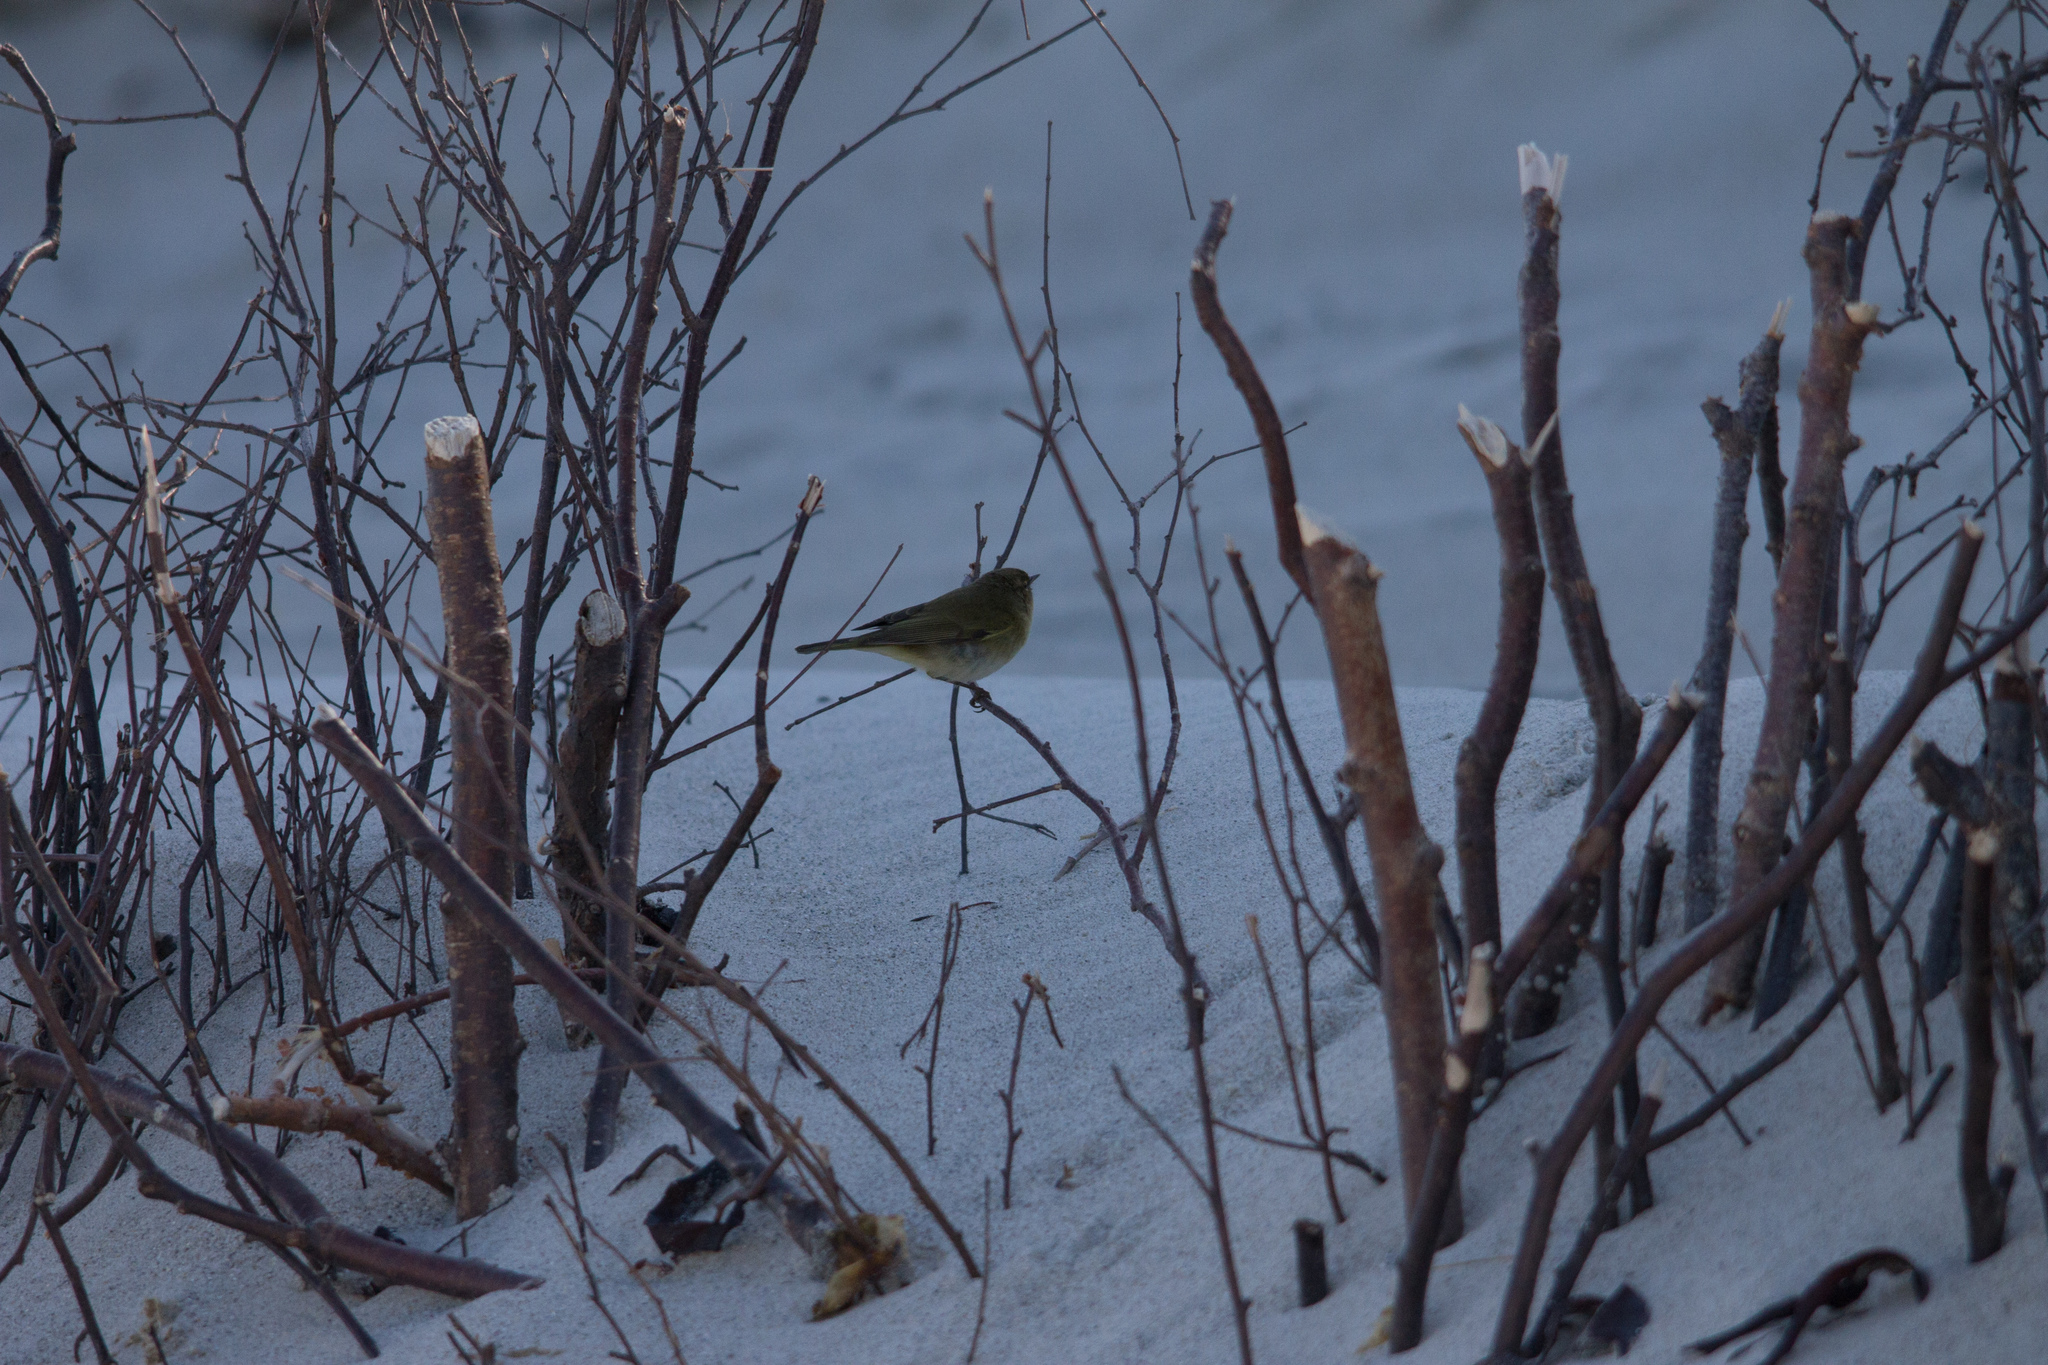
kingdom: Animalia
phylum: Chordata
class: Aves
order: Passeriformes
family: Phylloscopidae
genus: Phylloscopus
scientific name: Phylloscopus collybita
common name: Common chiffchaff
